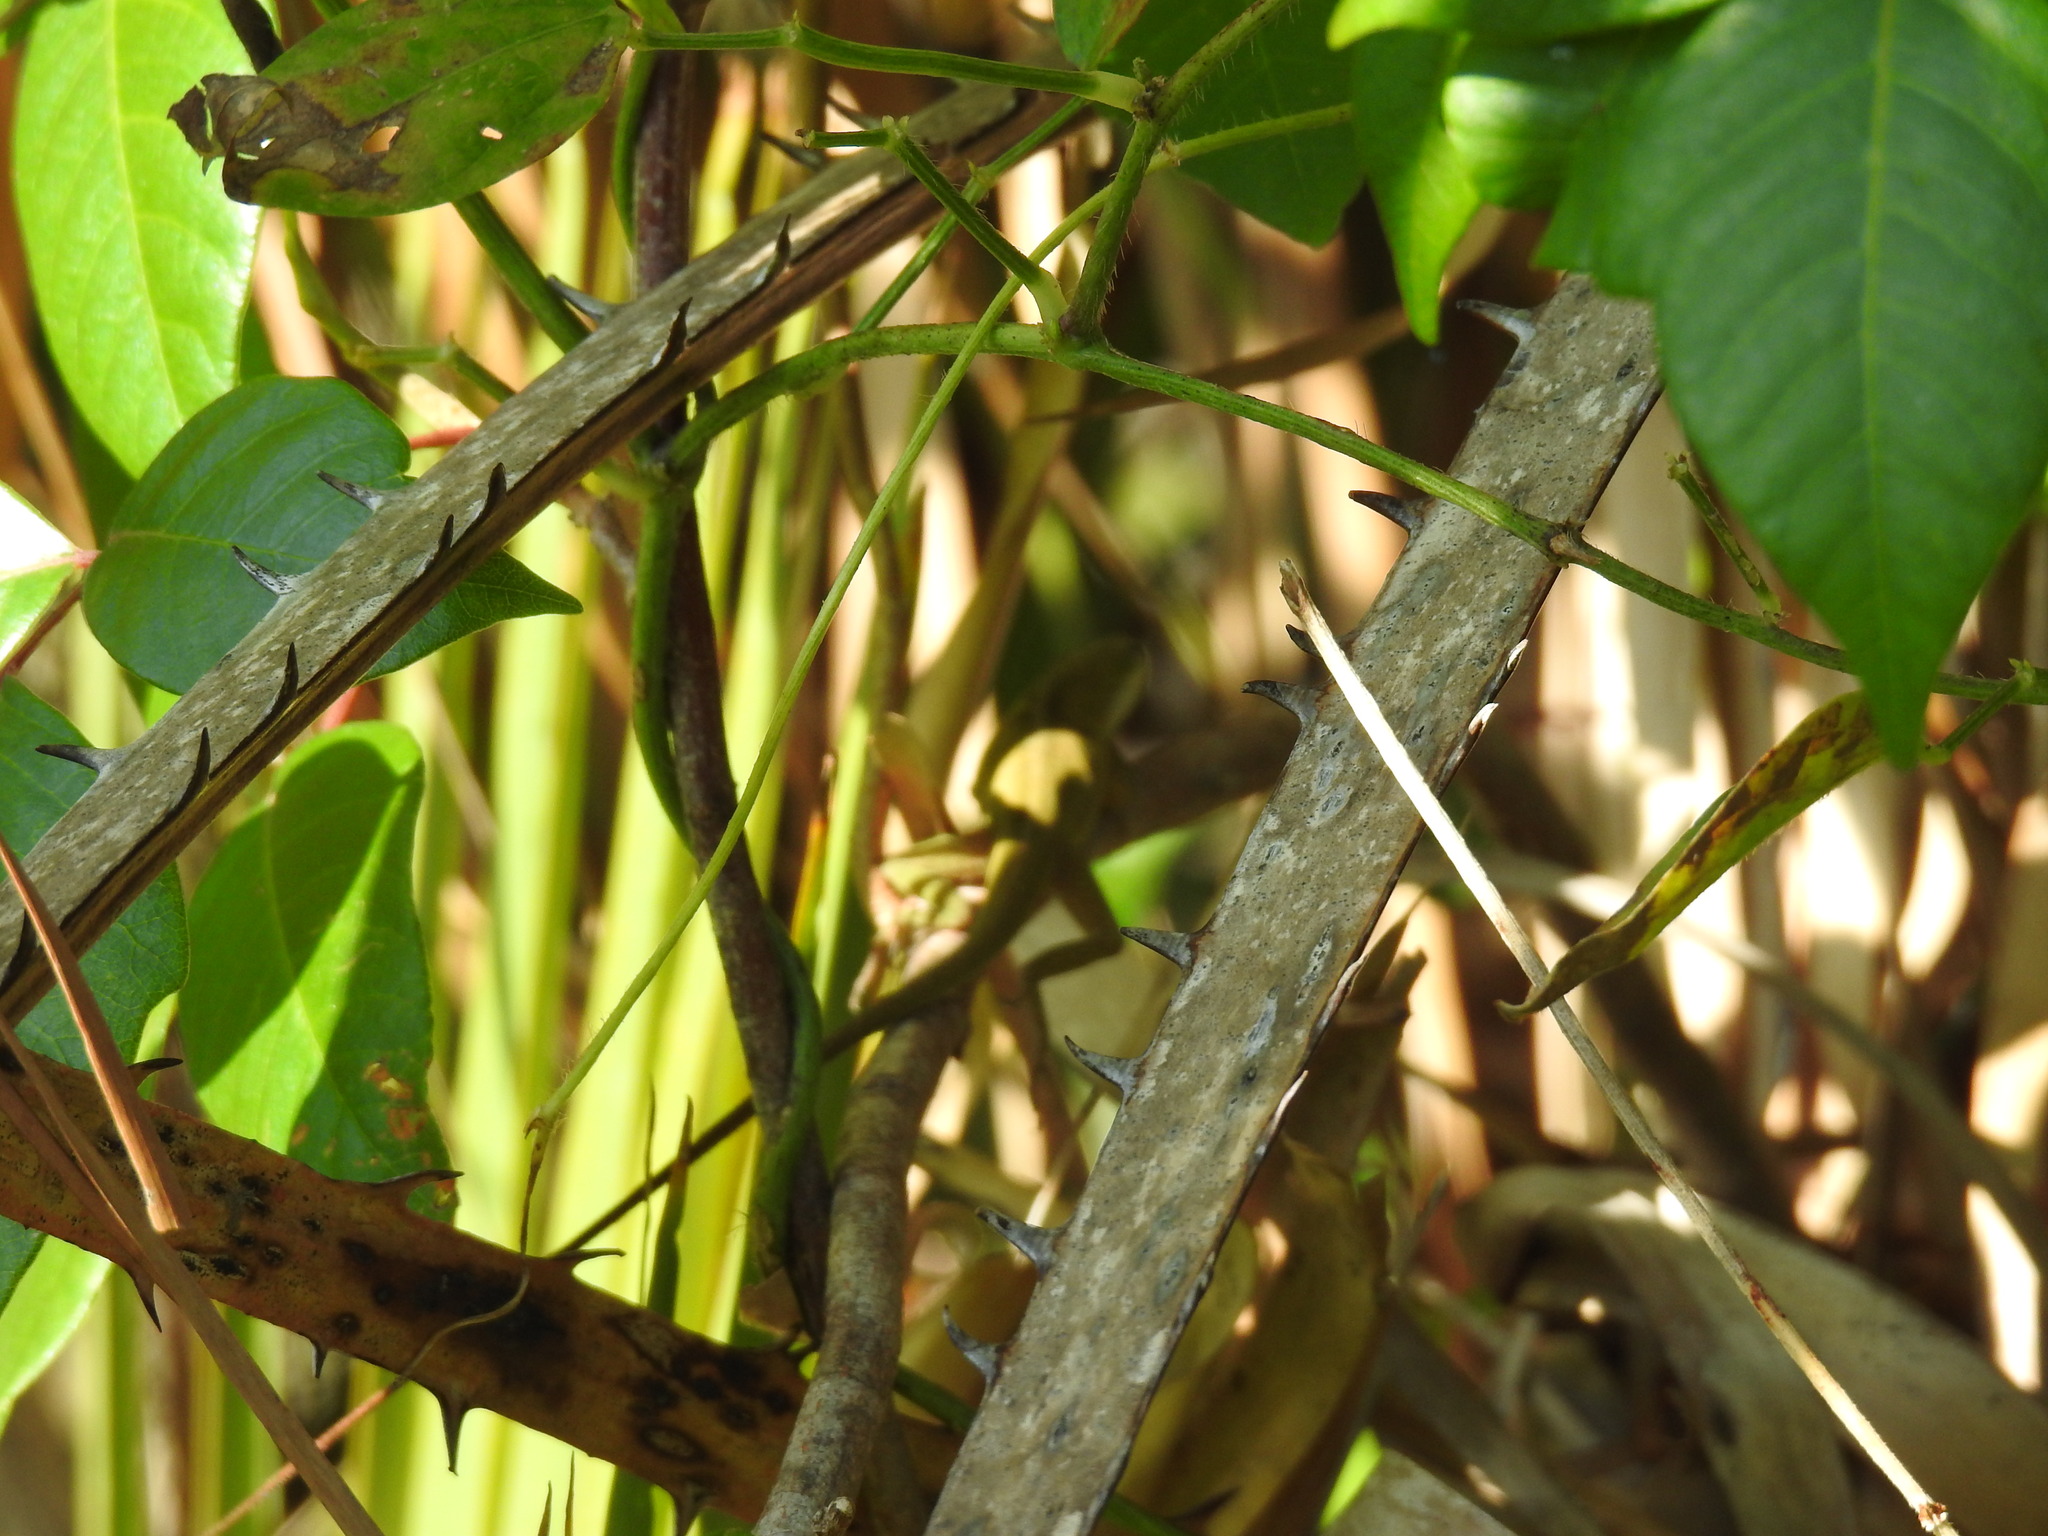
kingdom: Animalia
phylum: Chordata
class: Squamata
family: Dactyloidae
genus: Anolis
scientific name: Anolis carolinensis
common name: Green anole
